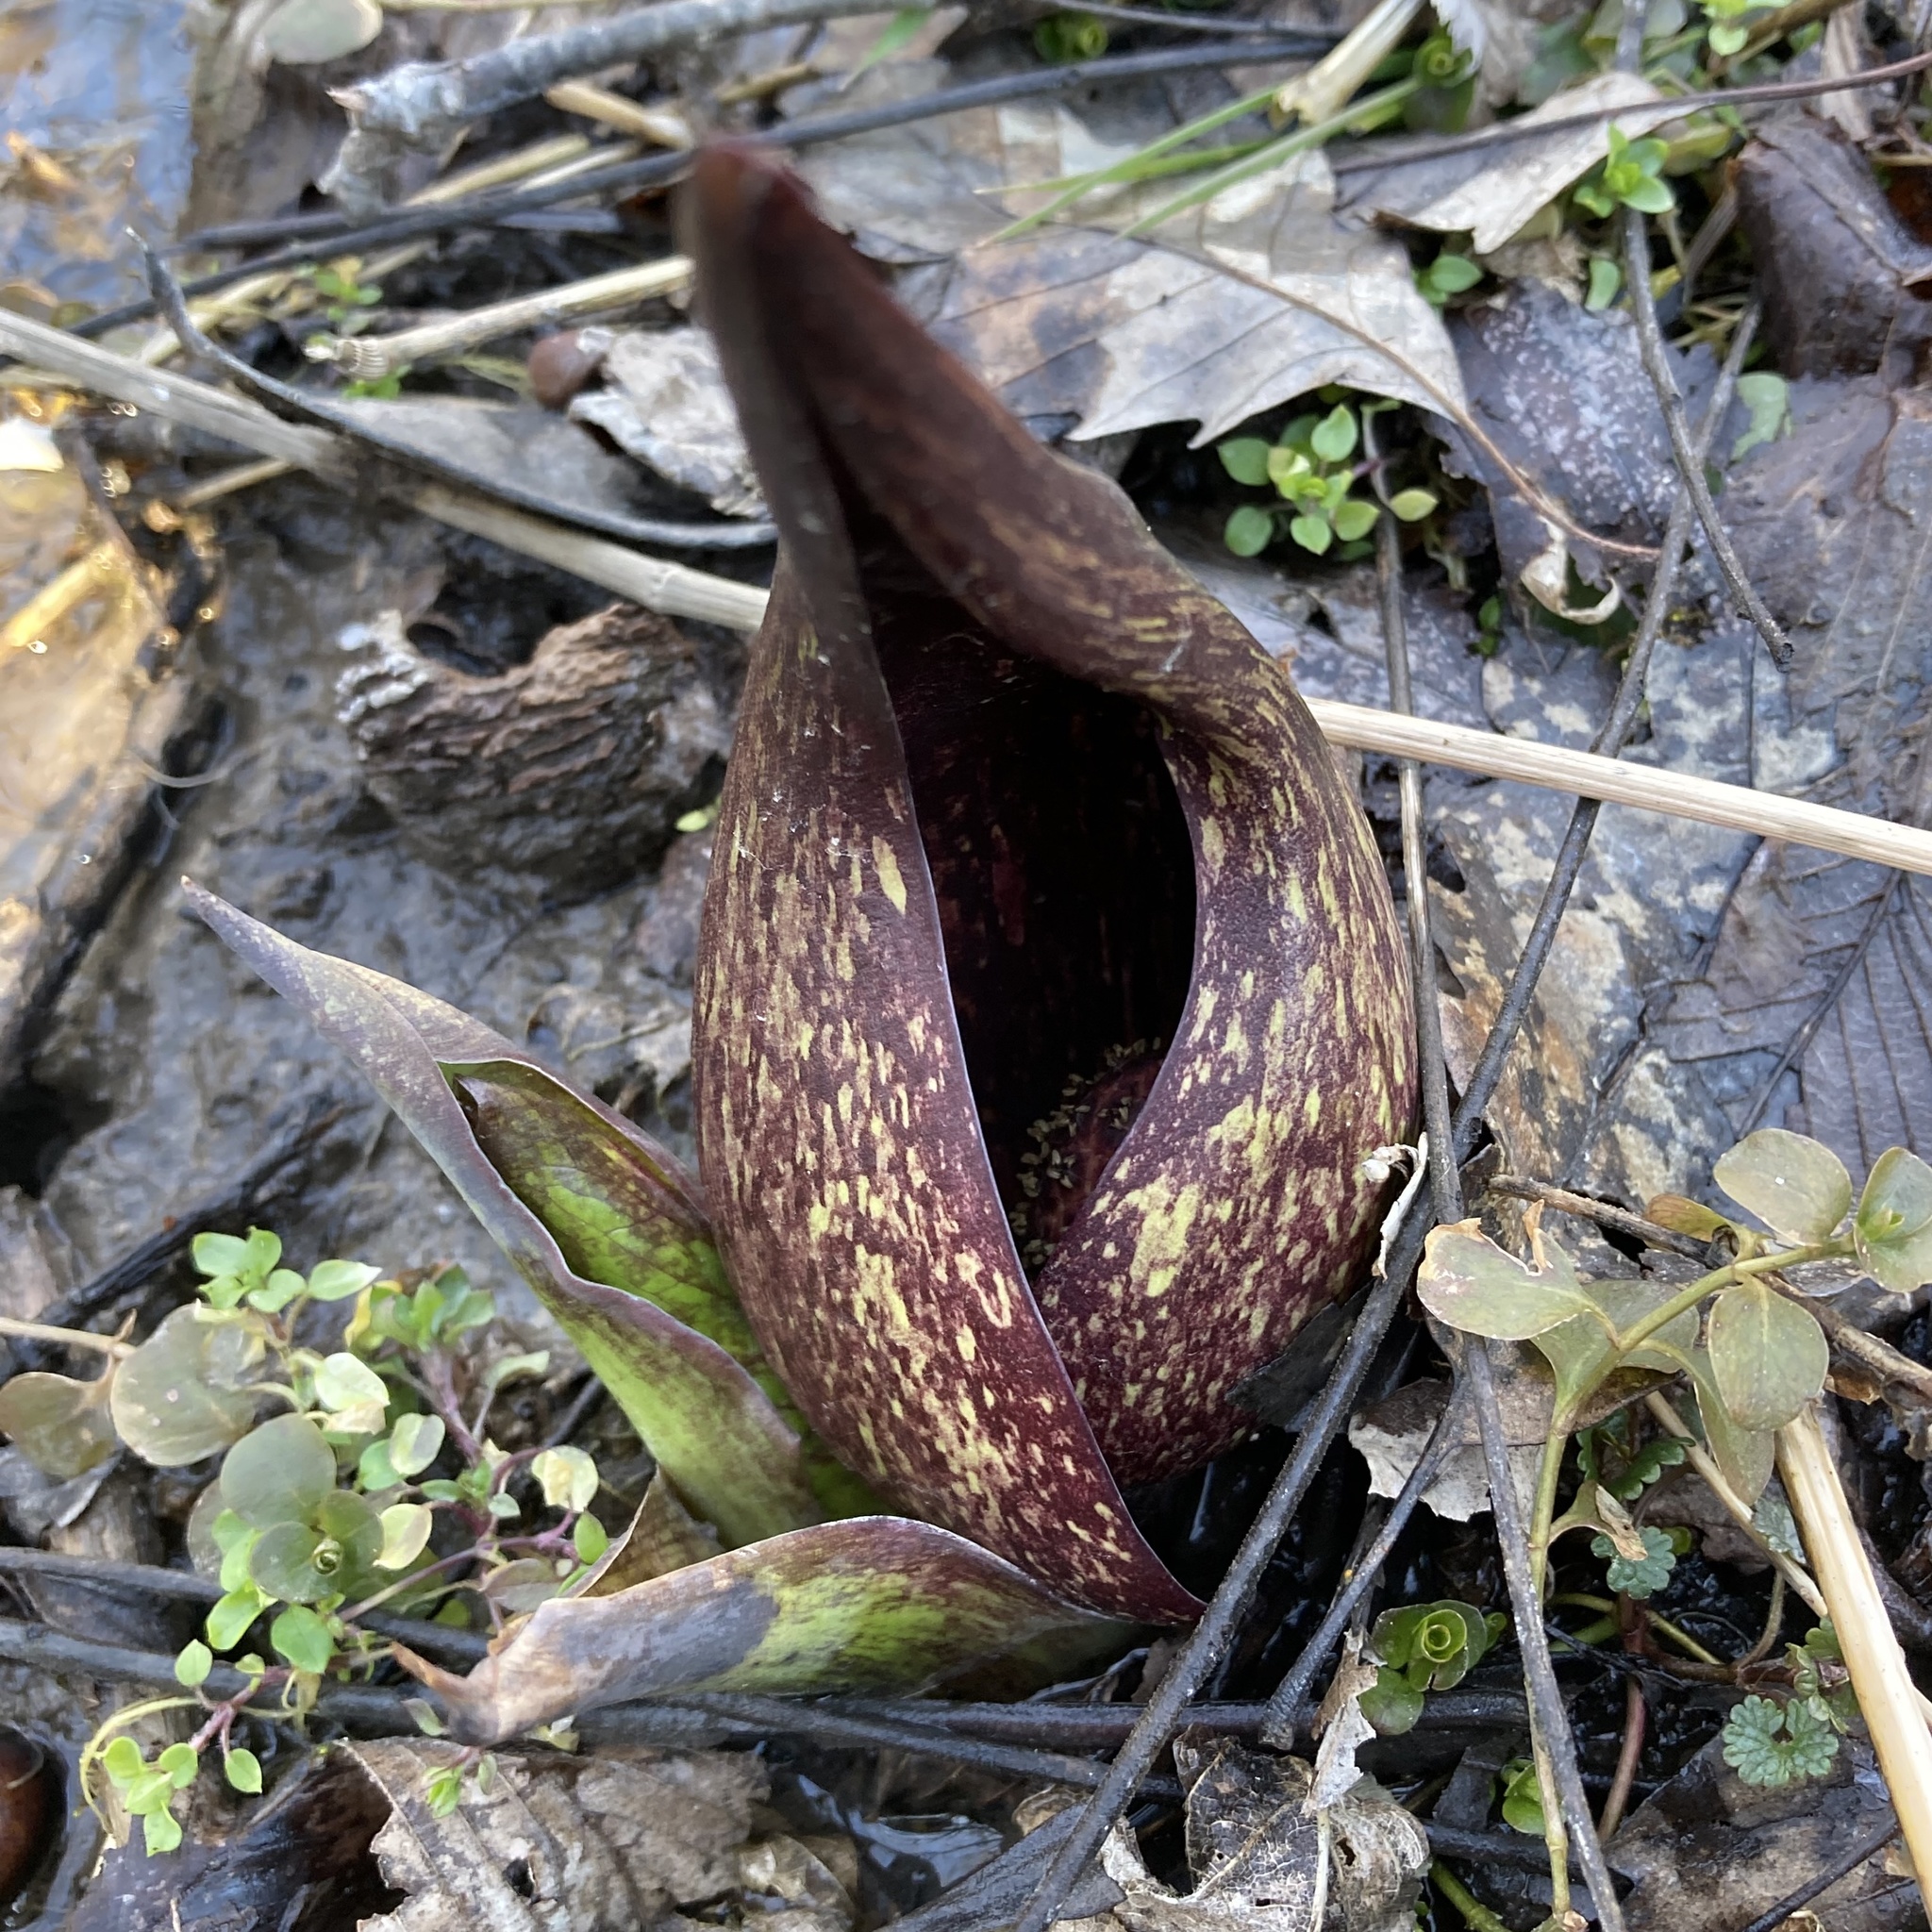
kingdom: Plantae
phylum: Tracheophyta
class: Liliopsida
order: Alismatales
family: Araceae
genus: Symplocarpus
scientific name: Symplocarpus foetidus
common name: Eastern skunk cabbage
